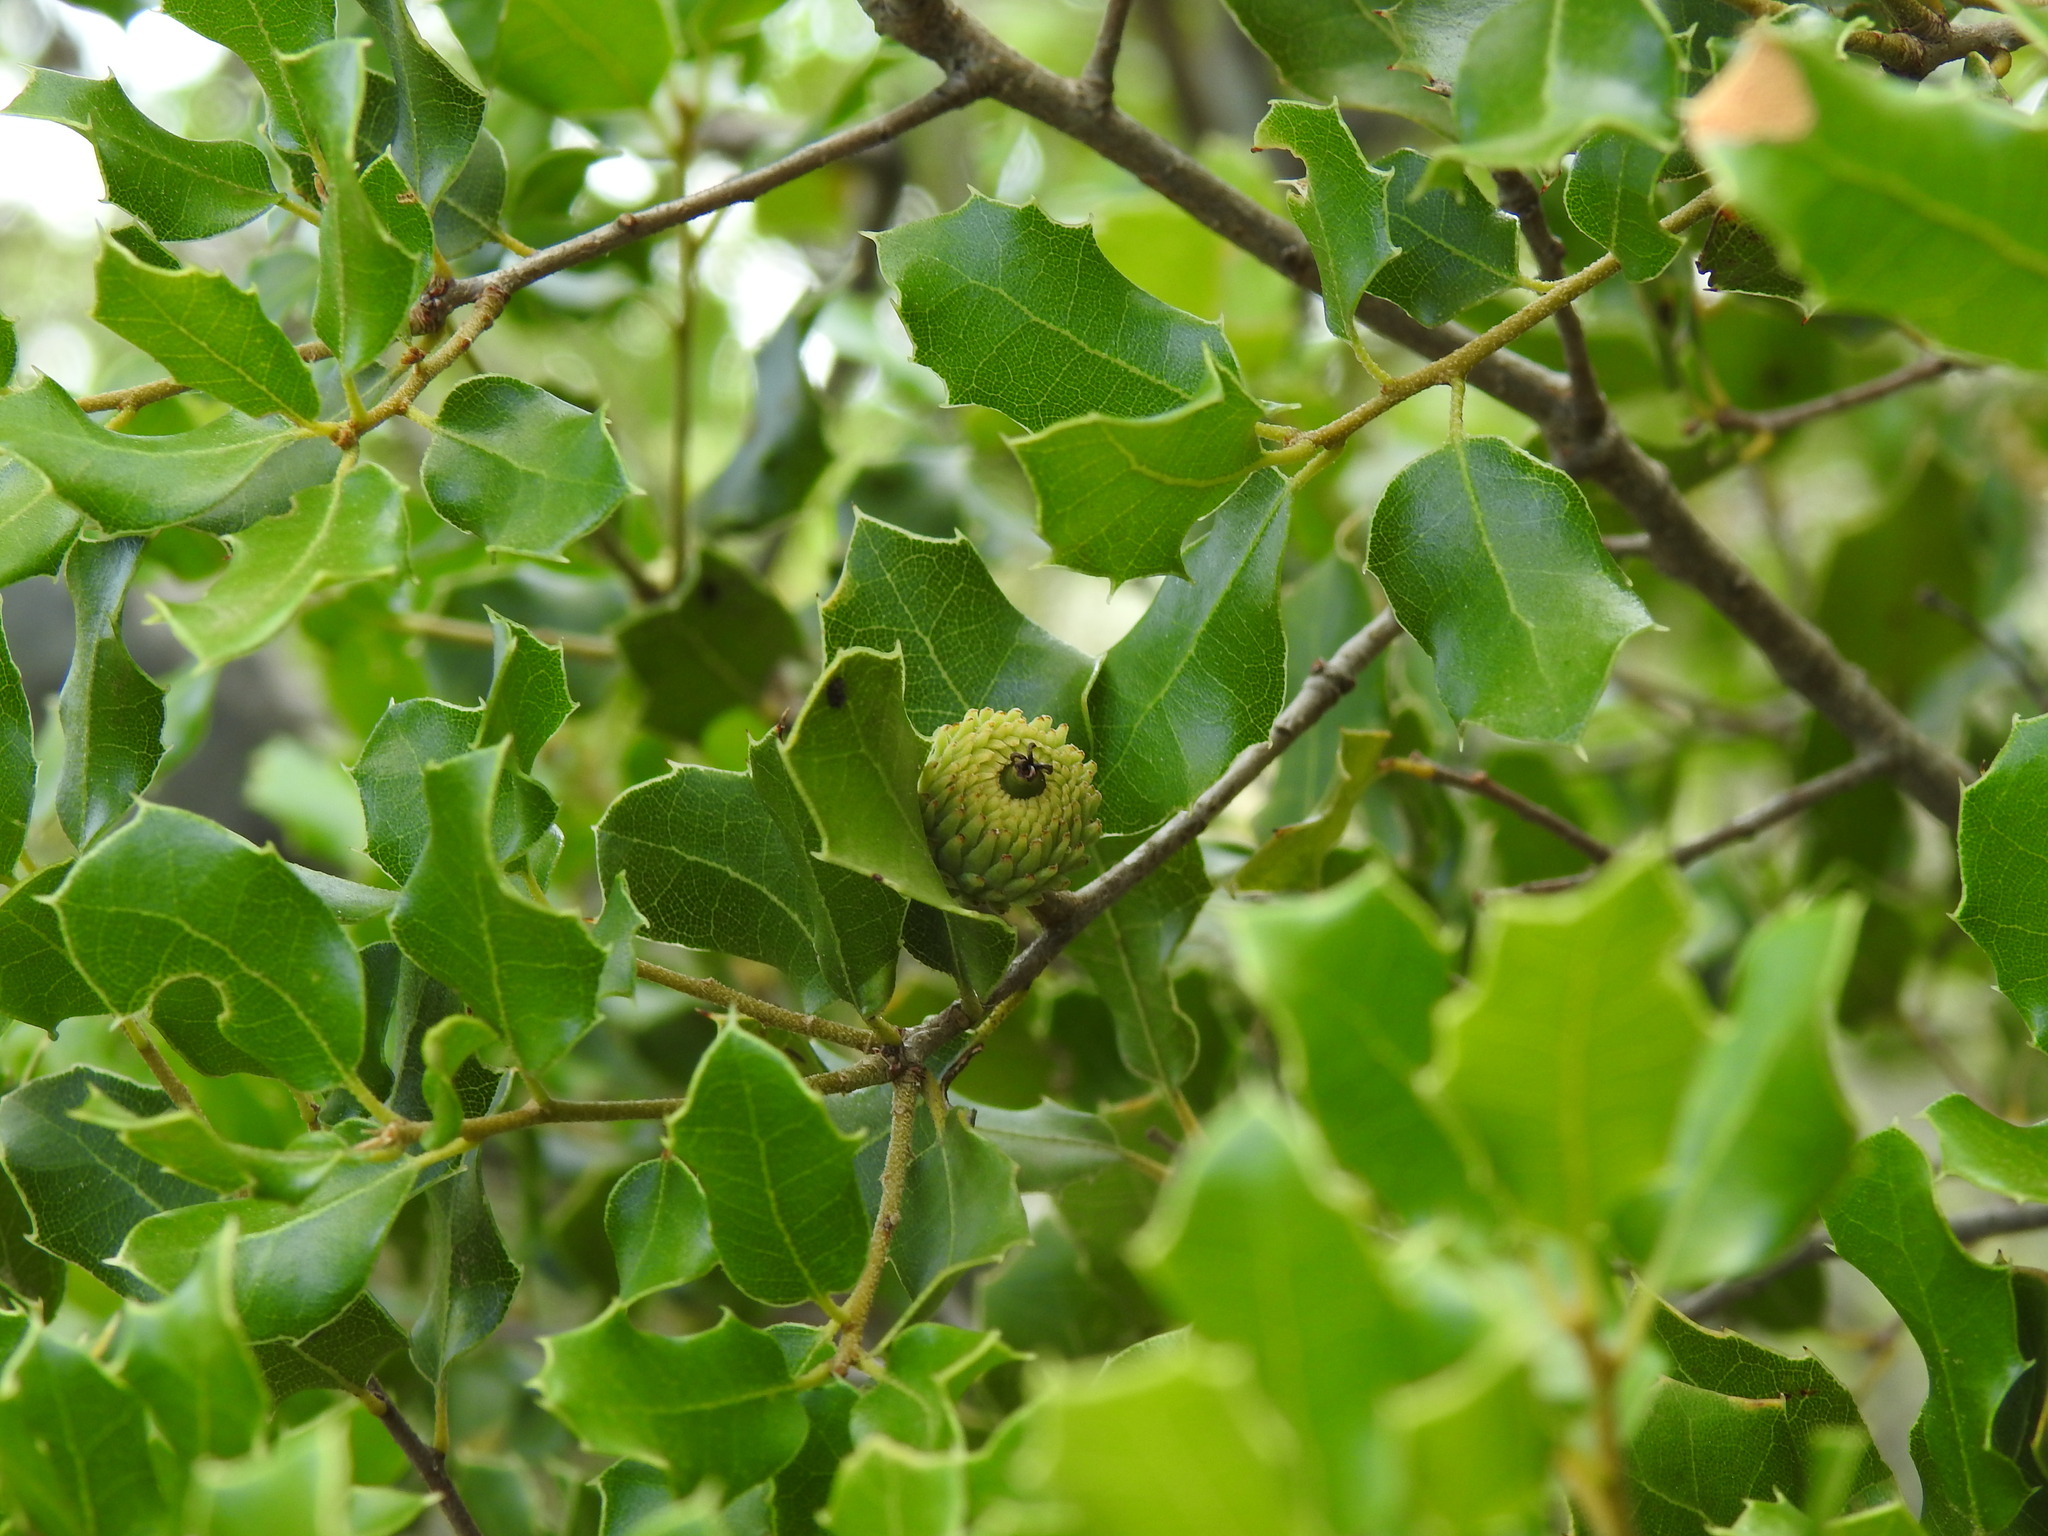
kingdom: Plantae
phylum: Tracheophyta
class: Magnoliopsida
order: Fagales
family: Fagaceae
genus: Quercus
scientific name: Quercus coccifera
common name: Kermes oak
